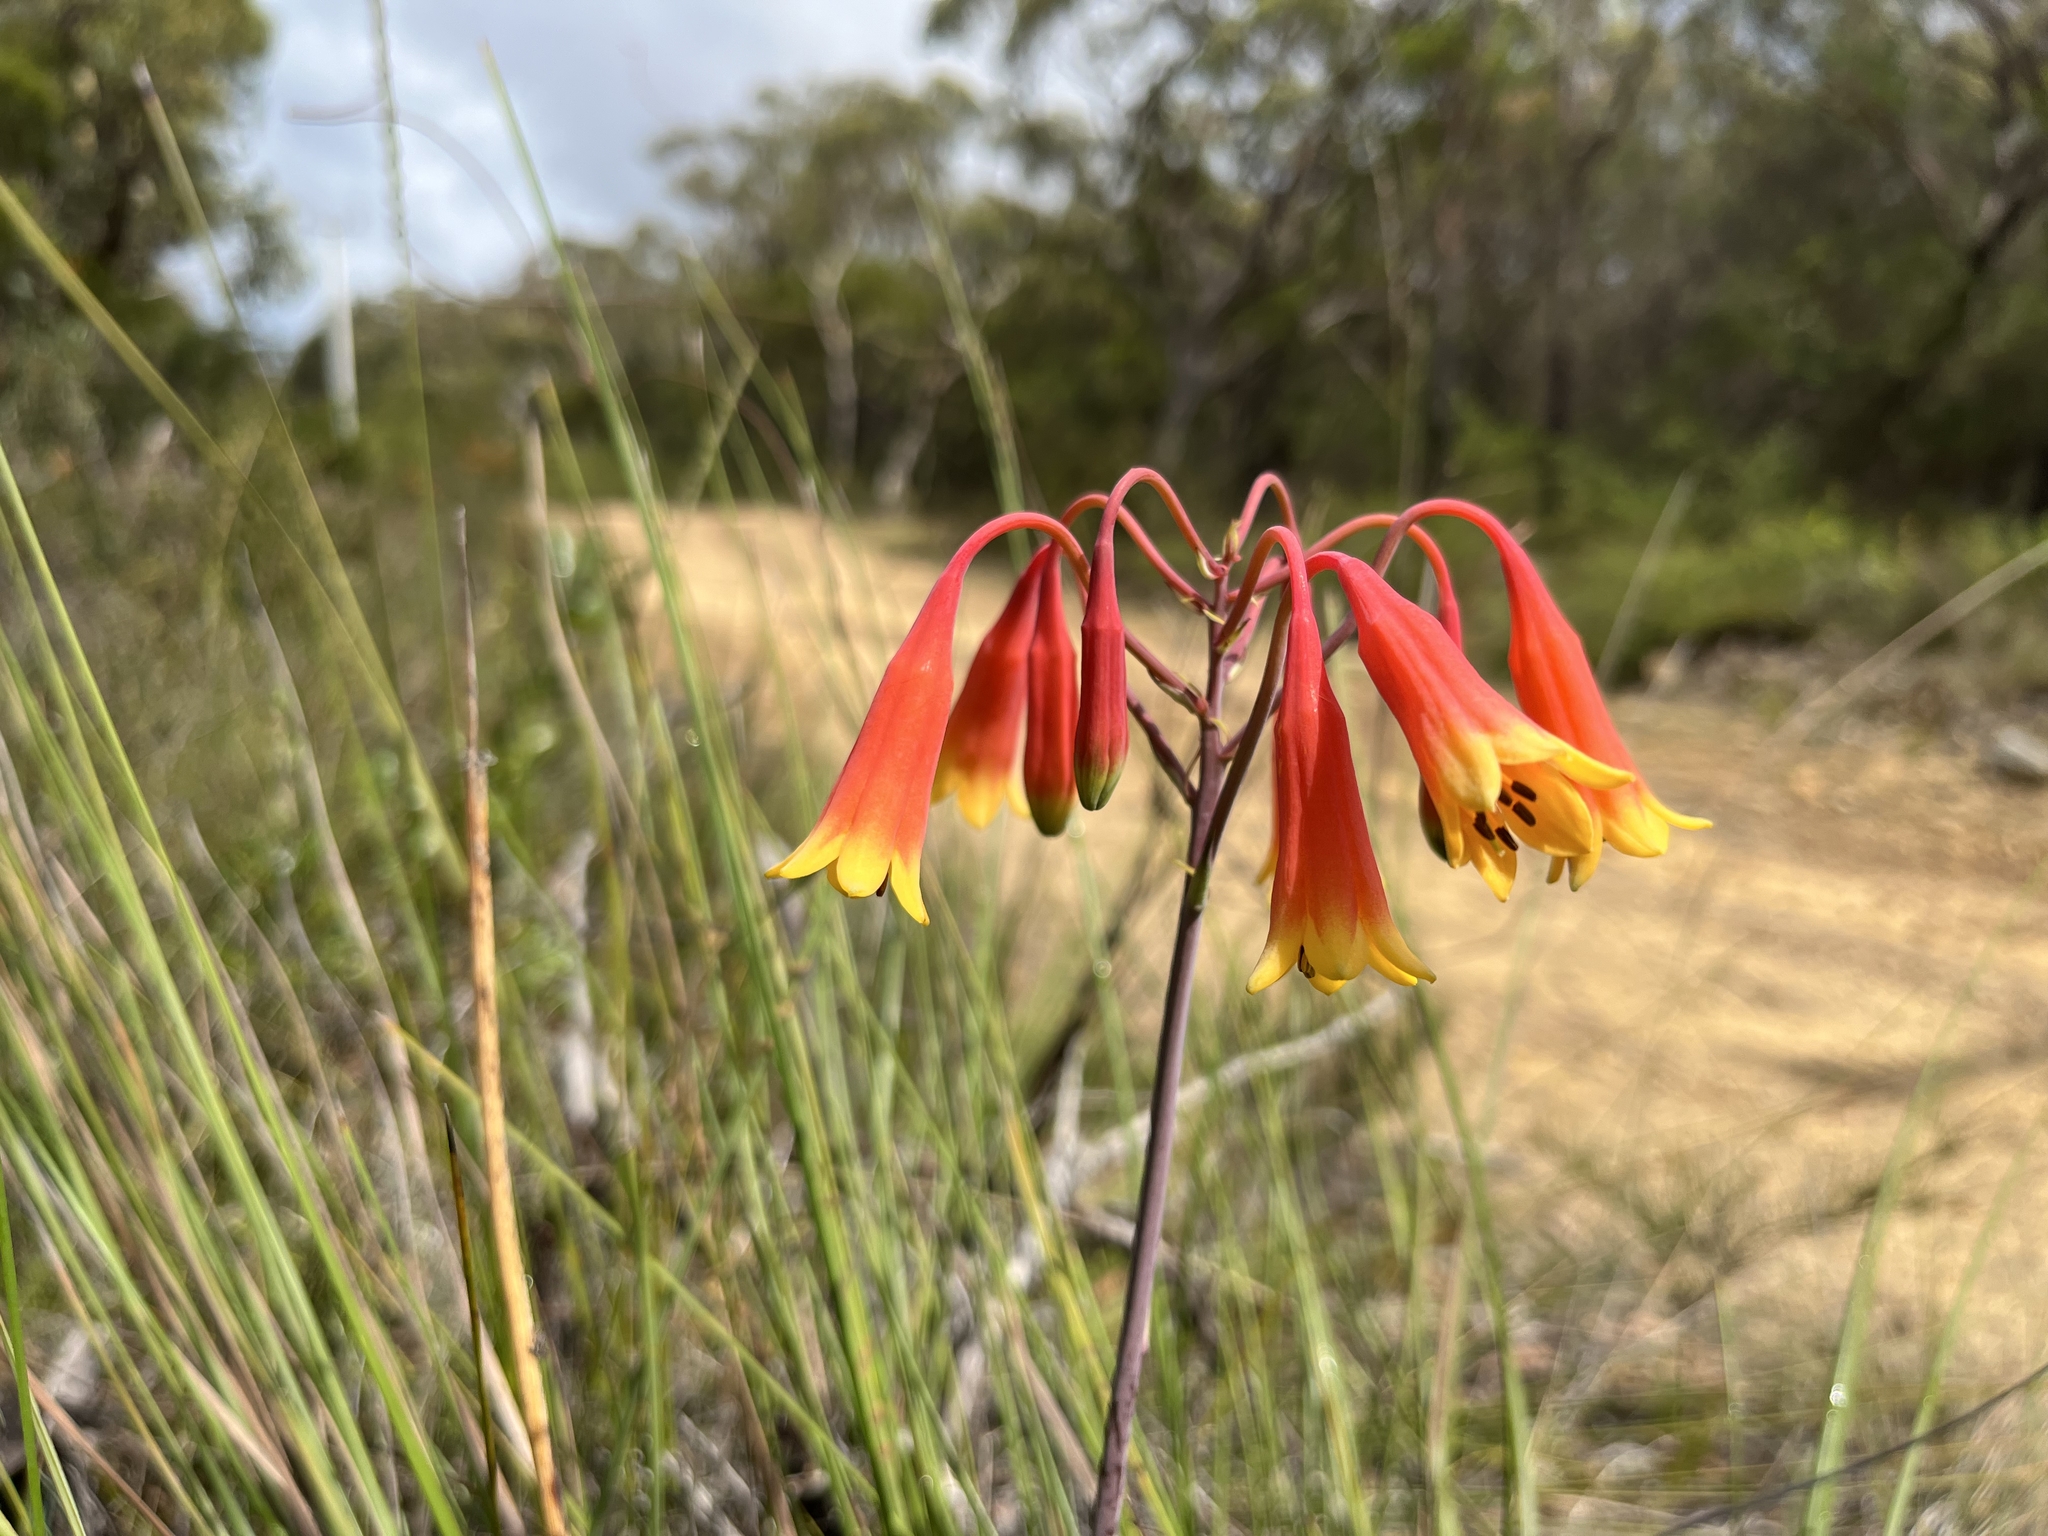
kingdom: Plantae
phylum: Tracheophyta
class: Liliopsida
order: Asparagales
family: Blandfordiaceae
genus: Blandfordia
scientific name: Blandfordia nobilis
